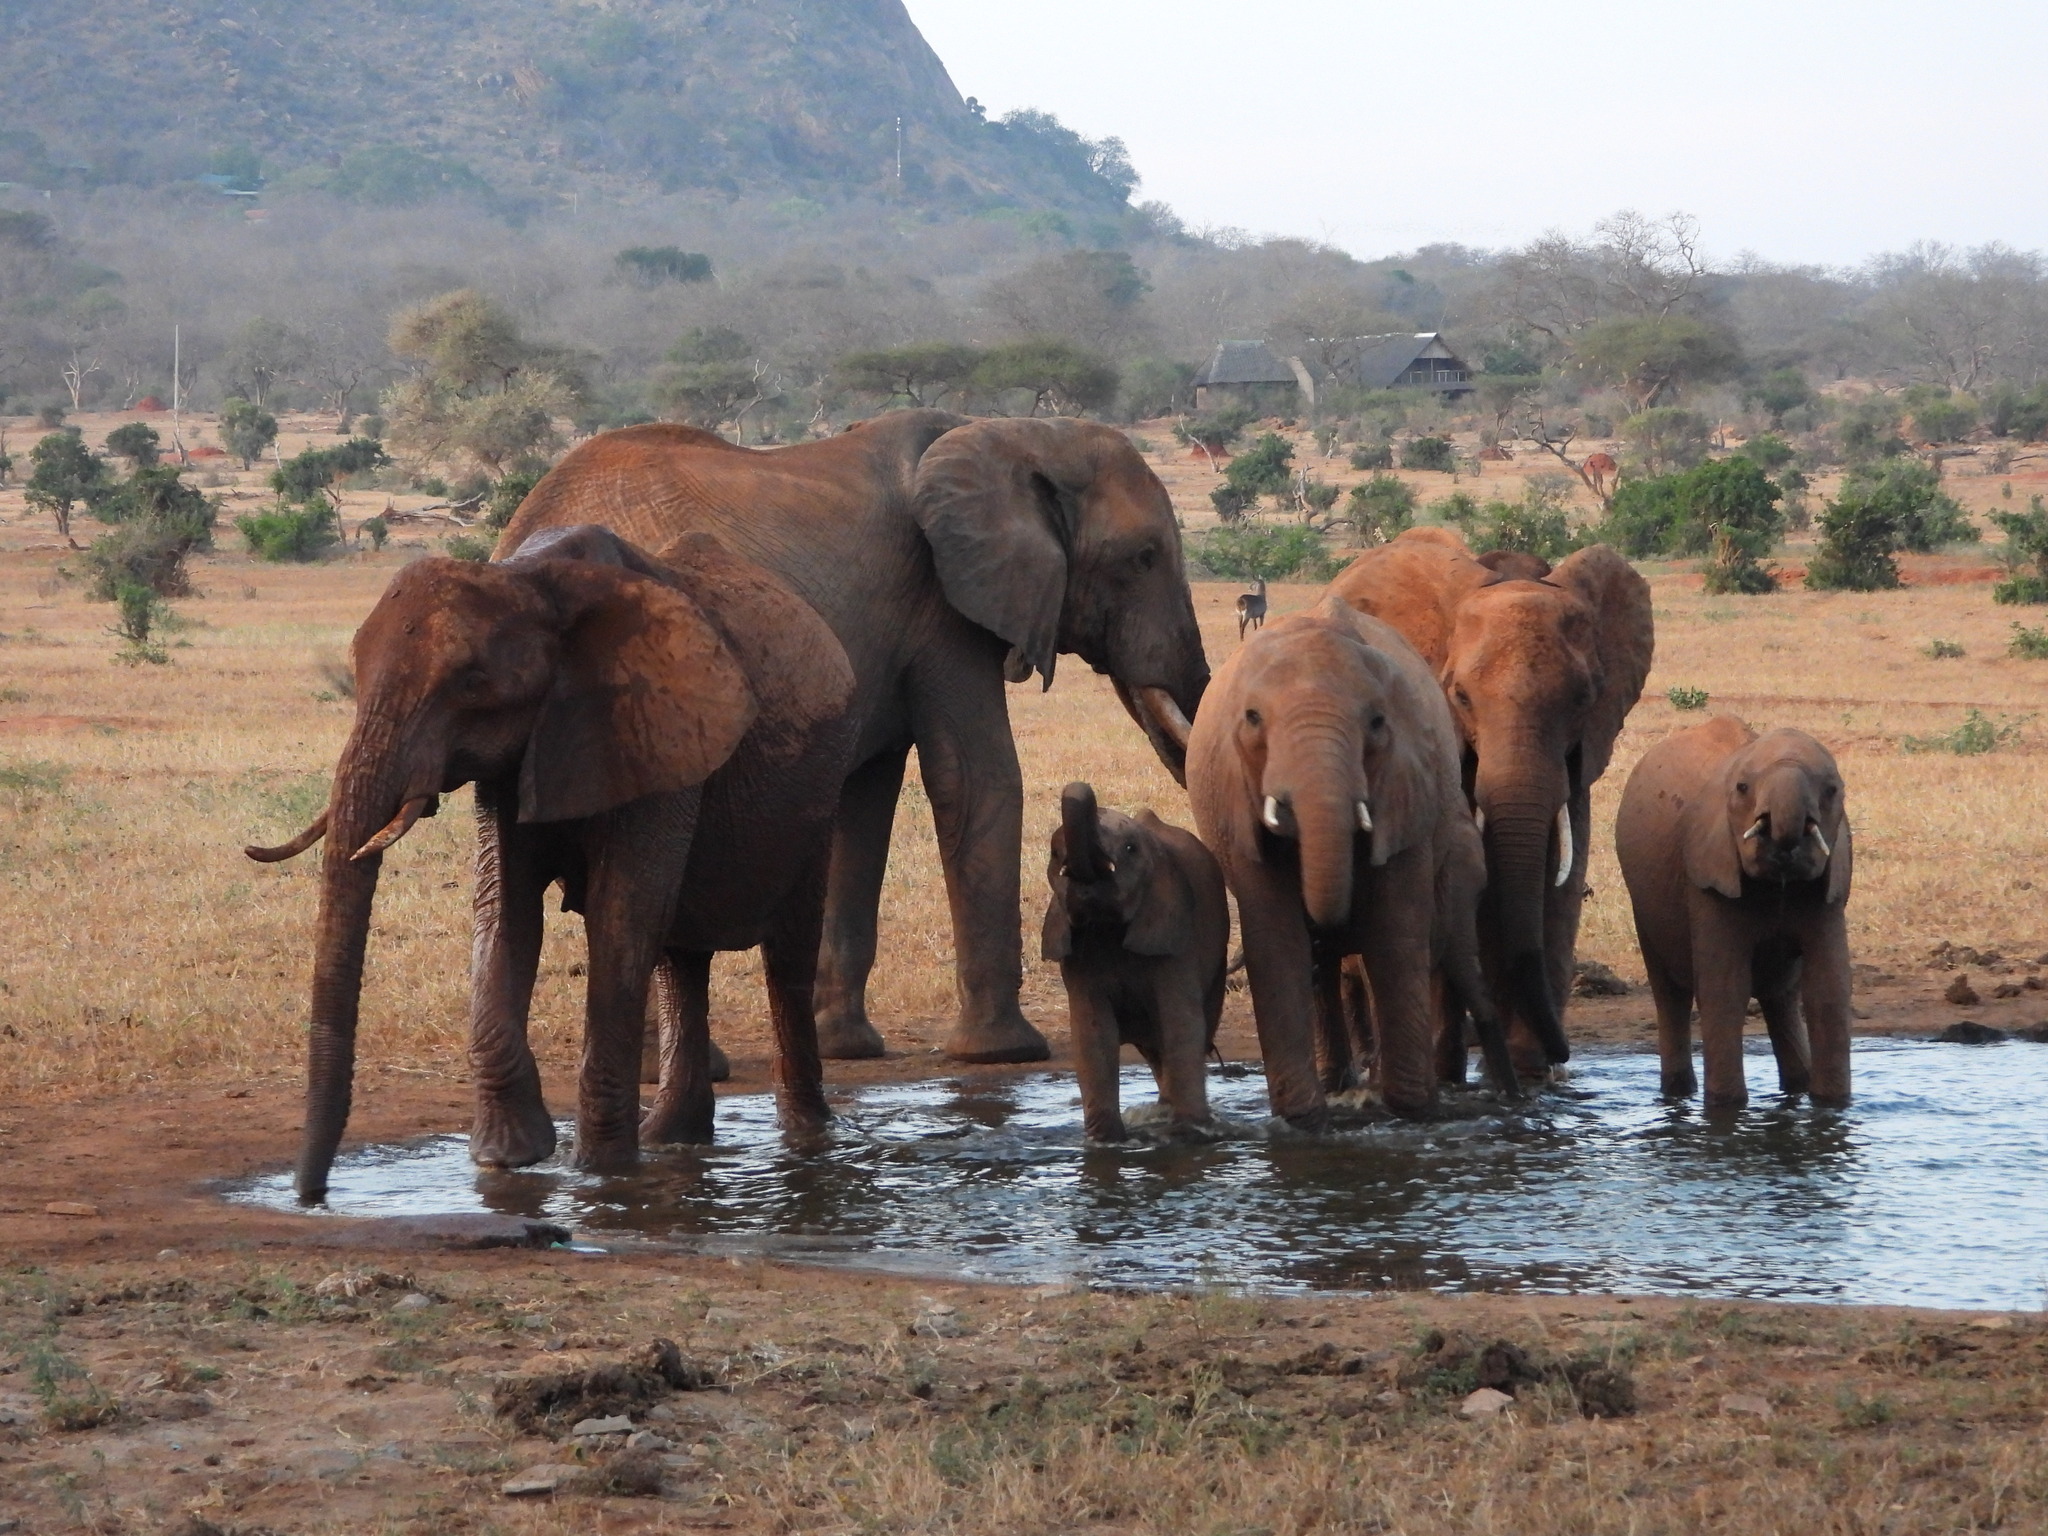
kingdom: Animalia
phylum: Chordata
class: Mammalia
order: Proboscidea
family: Elephantidae
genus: Loxodonta
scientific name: Loxodonta africana
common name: African elephant
